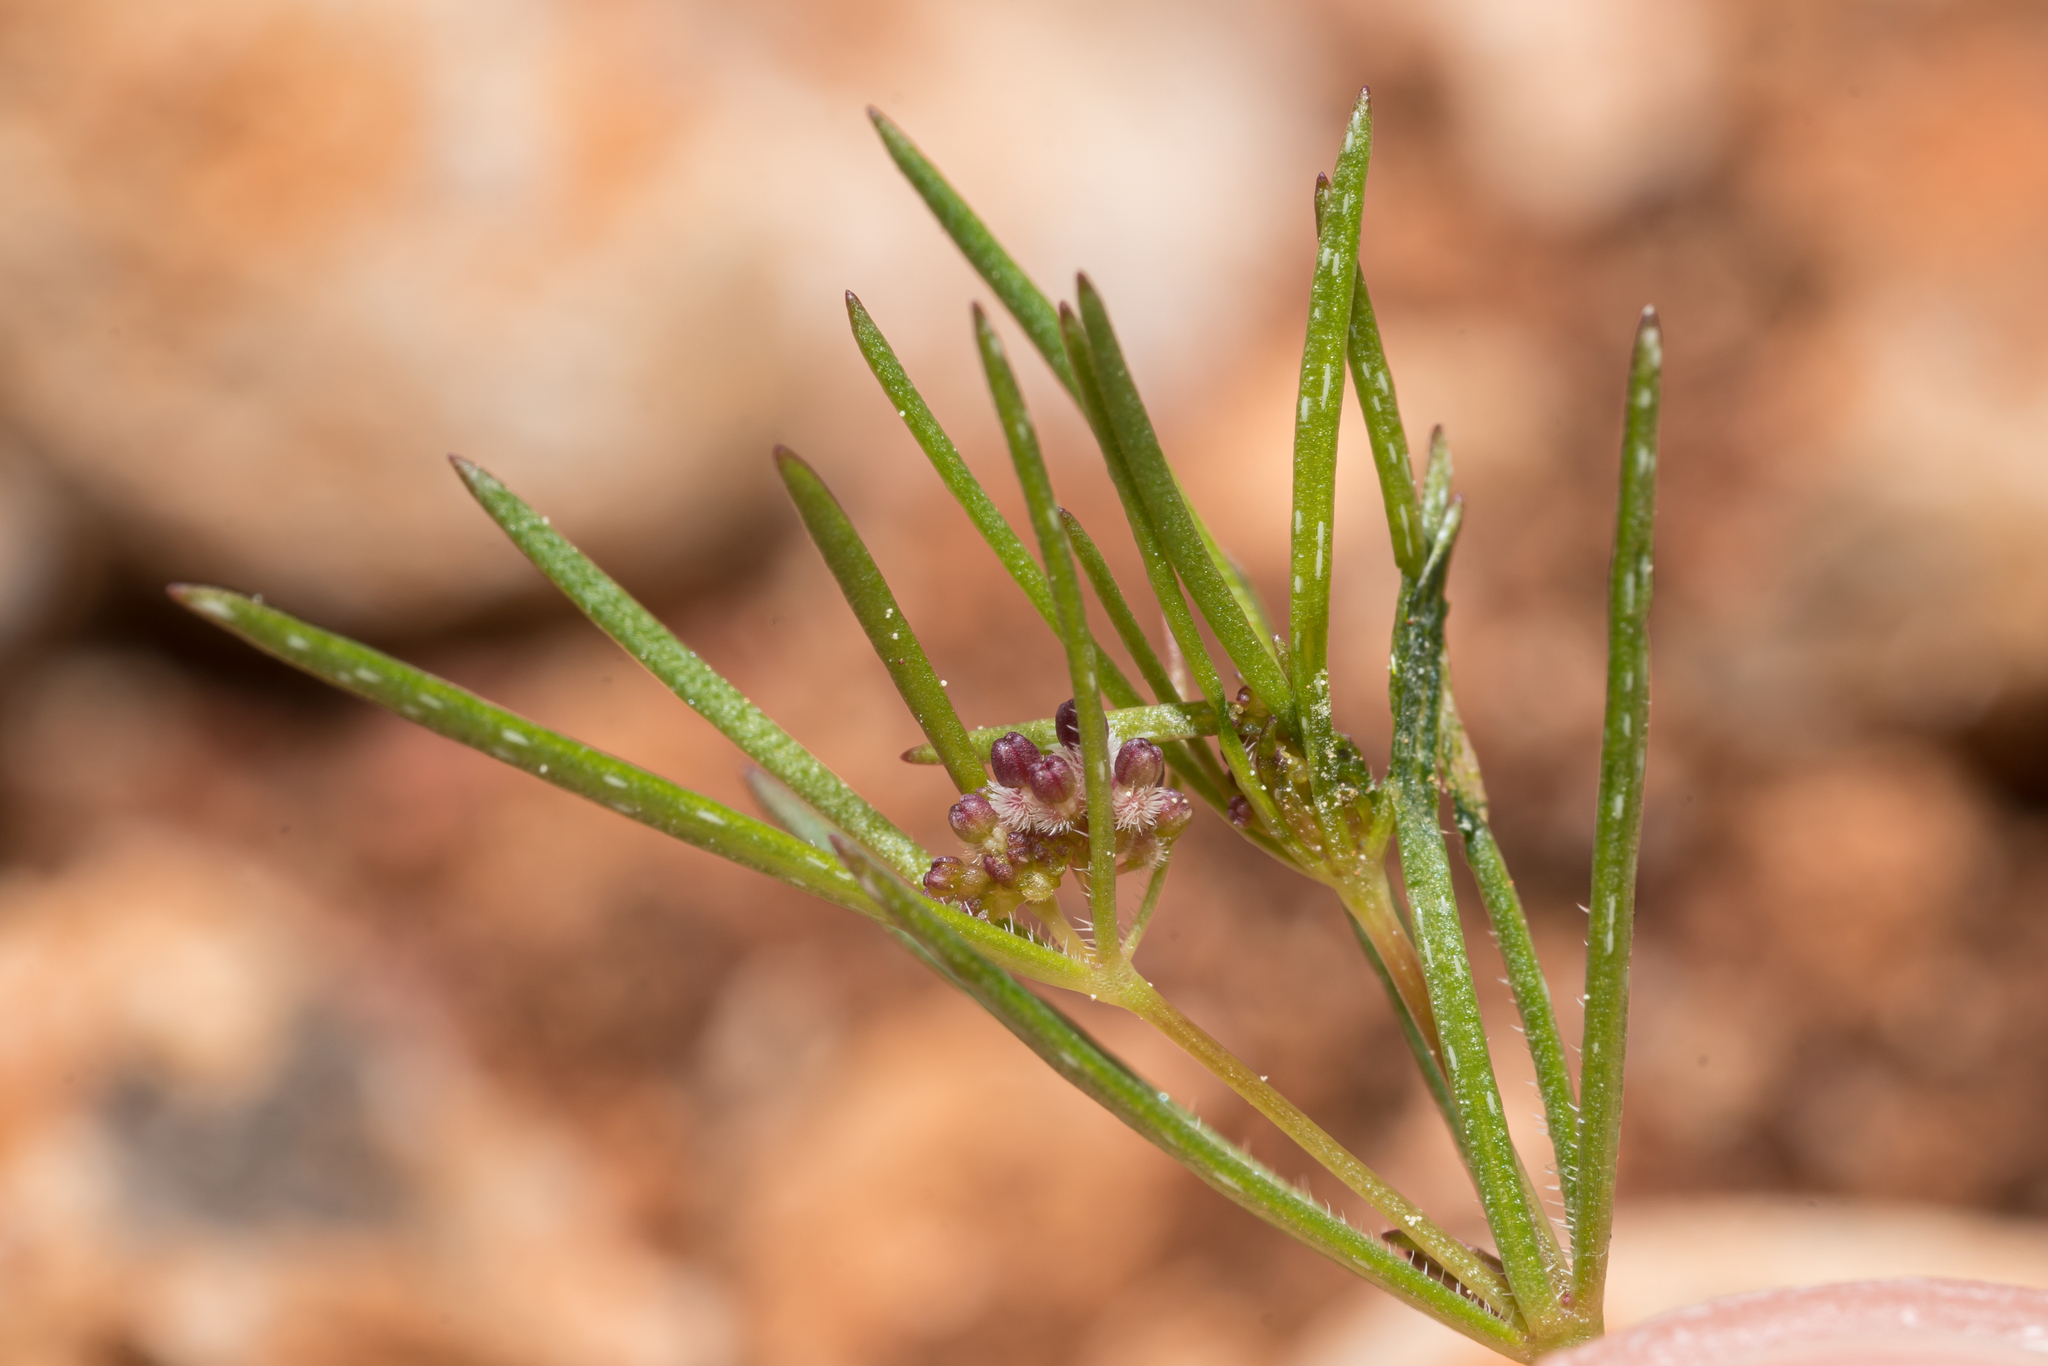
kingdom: Plantae
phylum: Tracheophyta
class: Magnoliopsida
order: Gentianales
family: Rubiaceae
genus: Galium
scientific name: Galium setaceum
